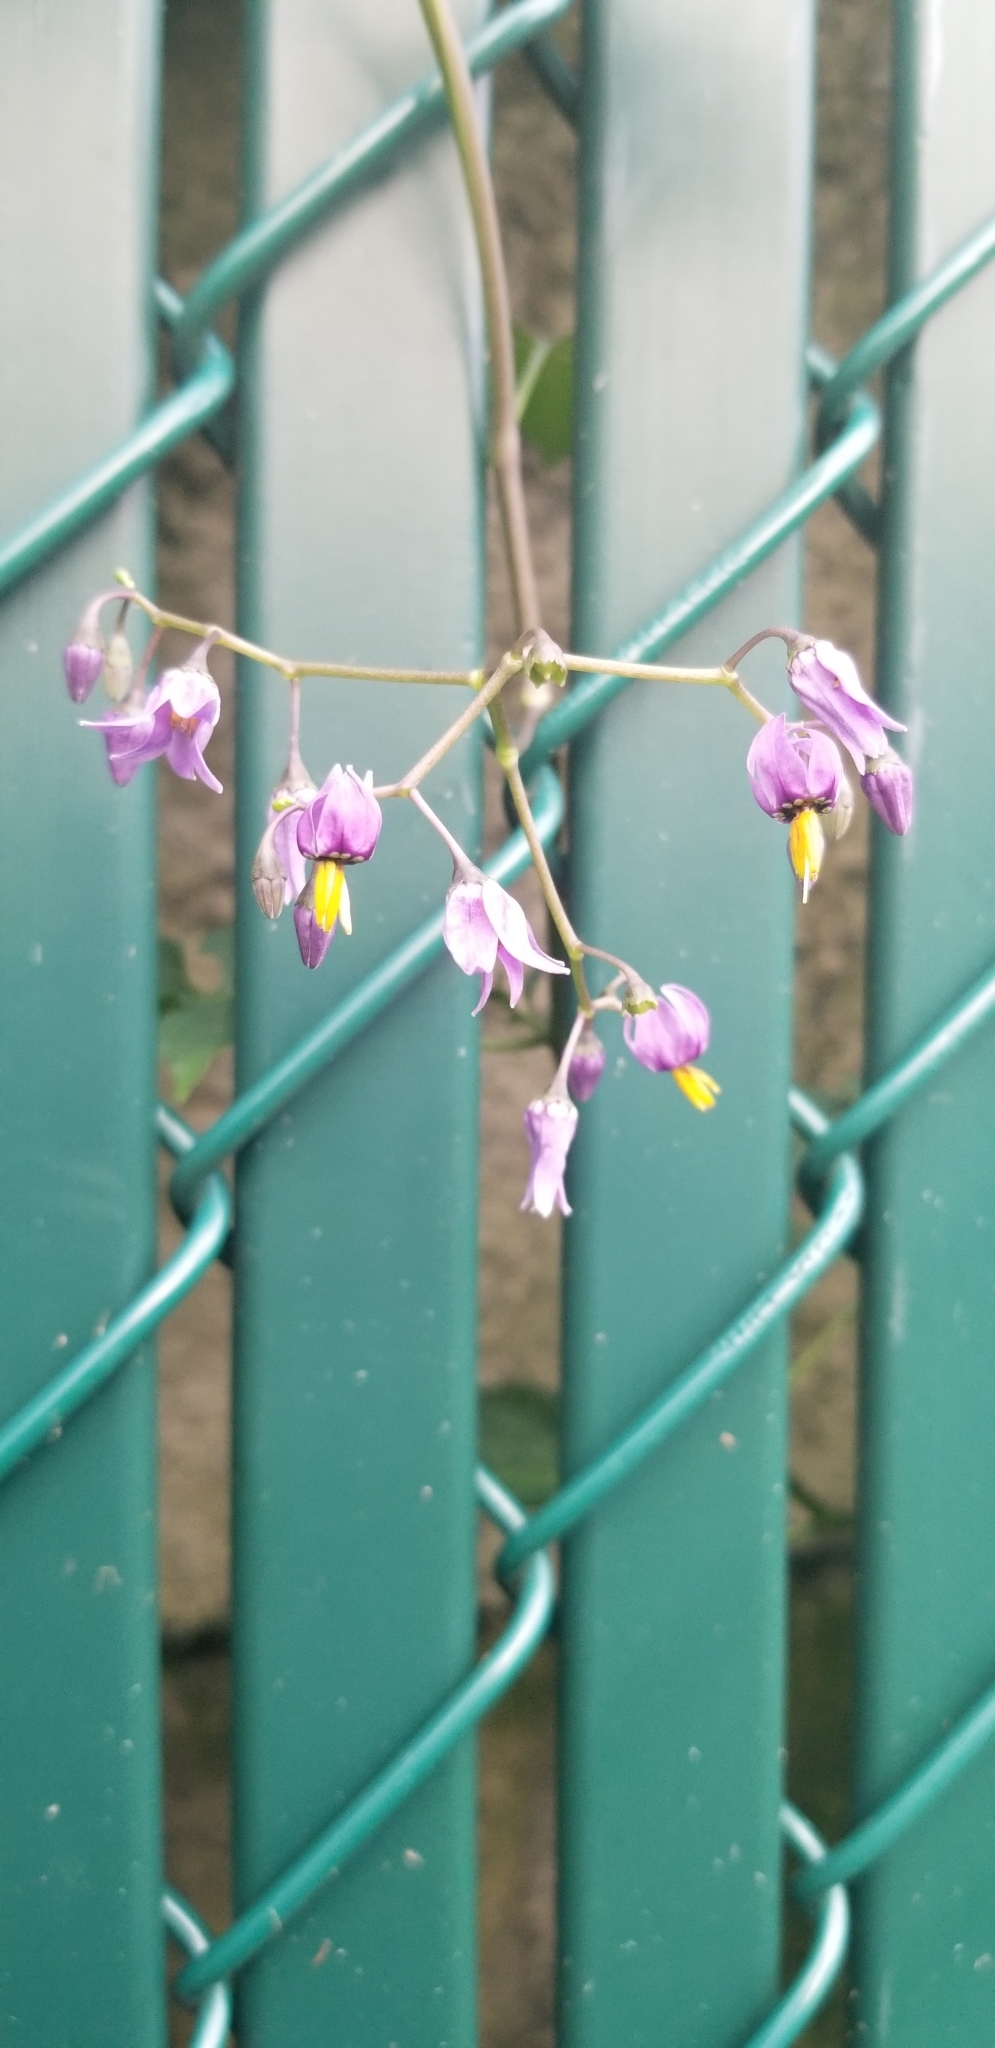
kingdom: Plantae
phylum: Tracheophyta
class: Magnoliopsida
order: Solanales
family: Solanaceae
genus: Solanum
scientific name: Solanum dulcamara
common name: Climbing nightshade
